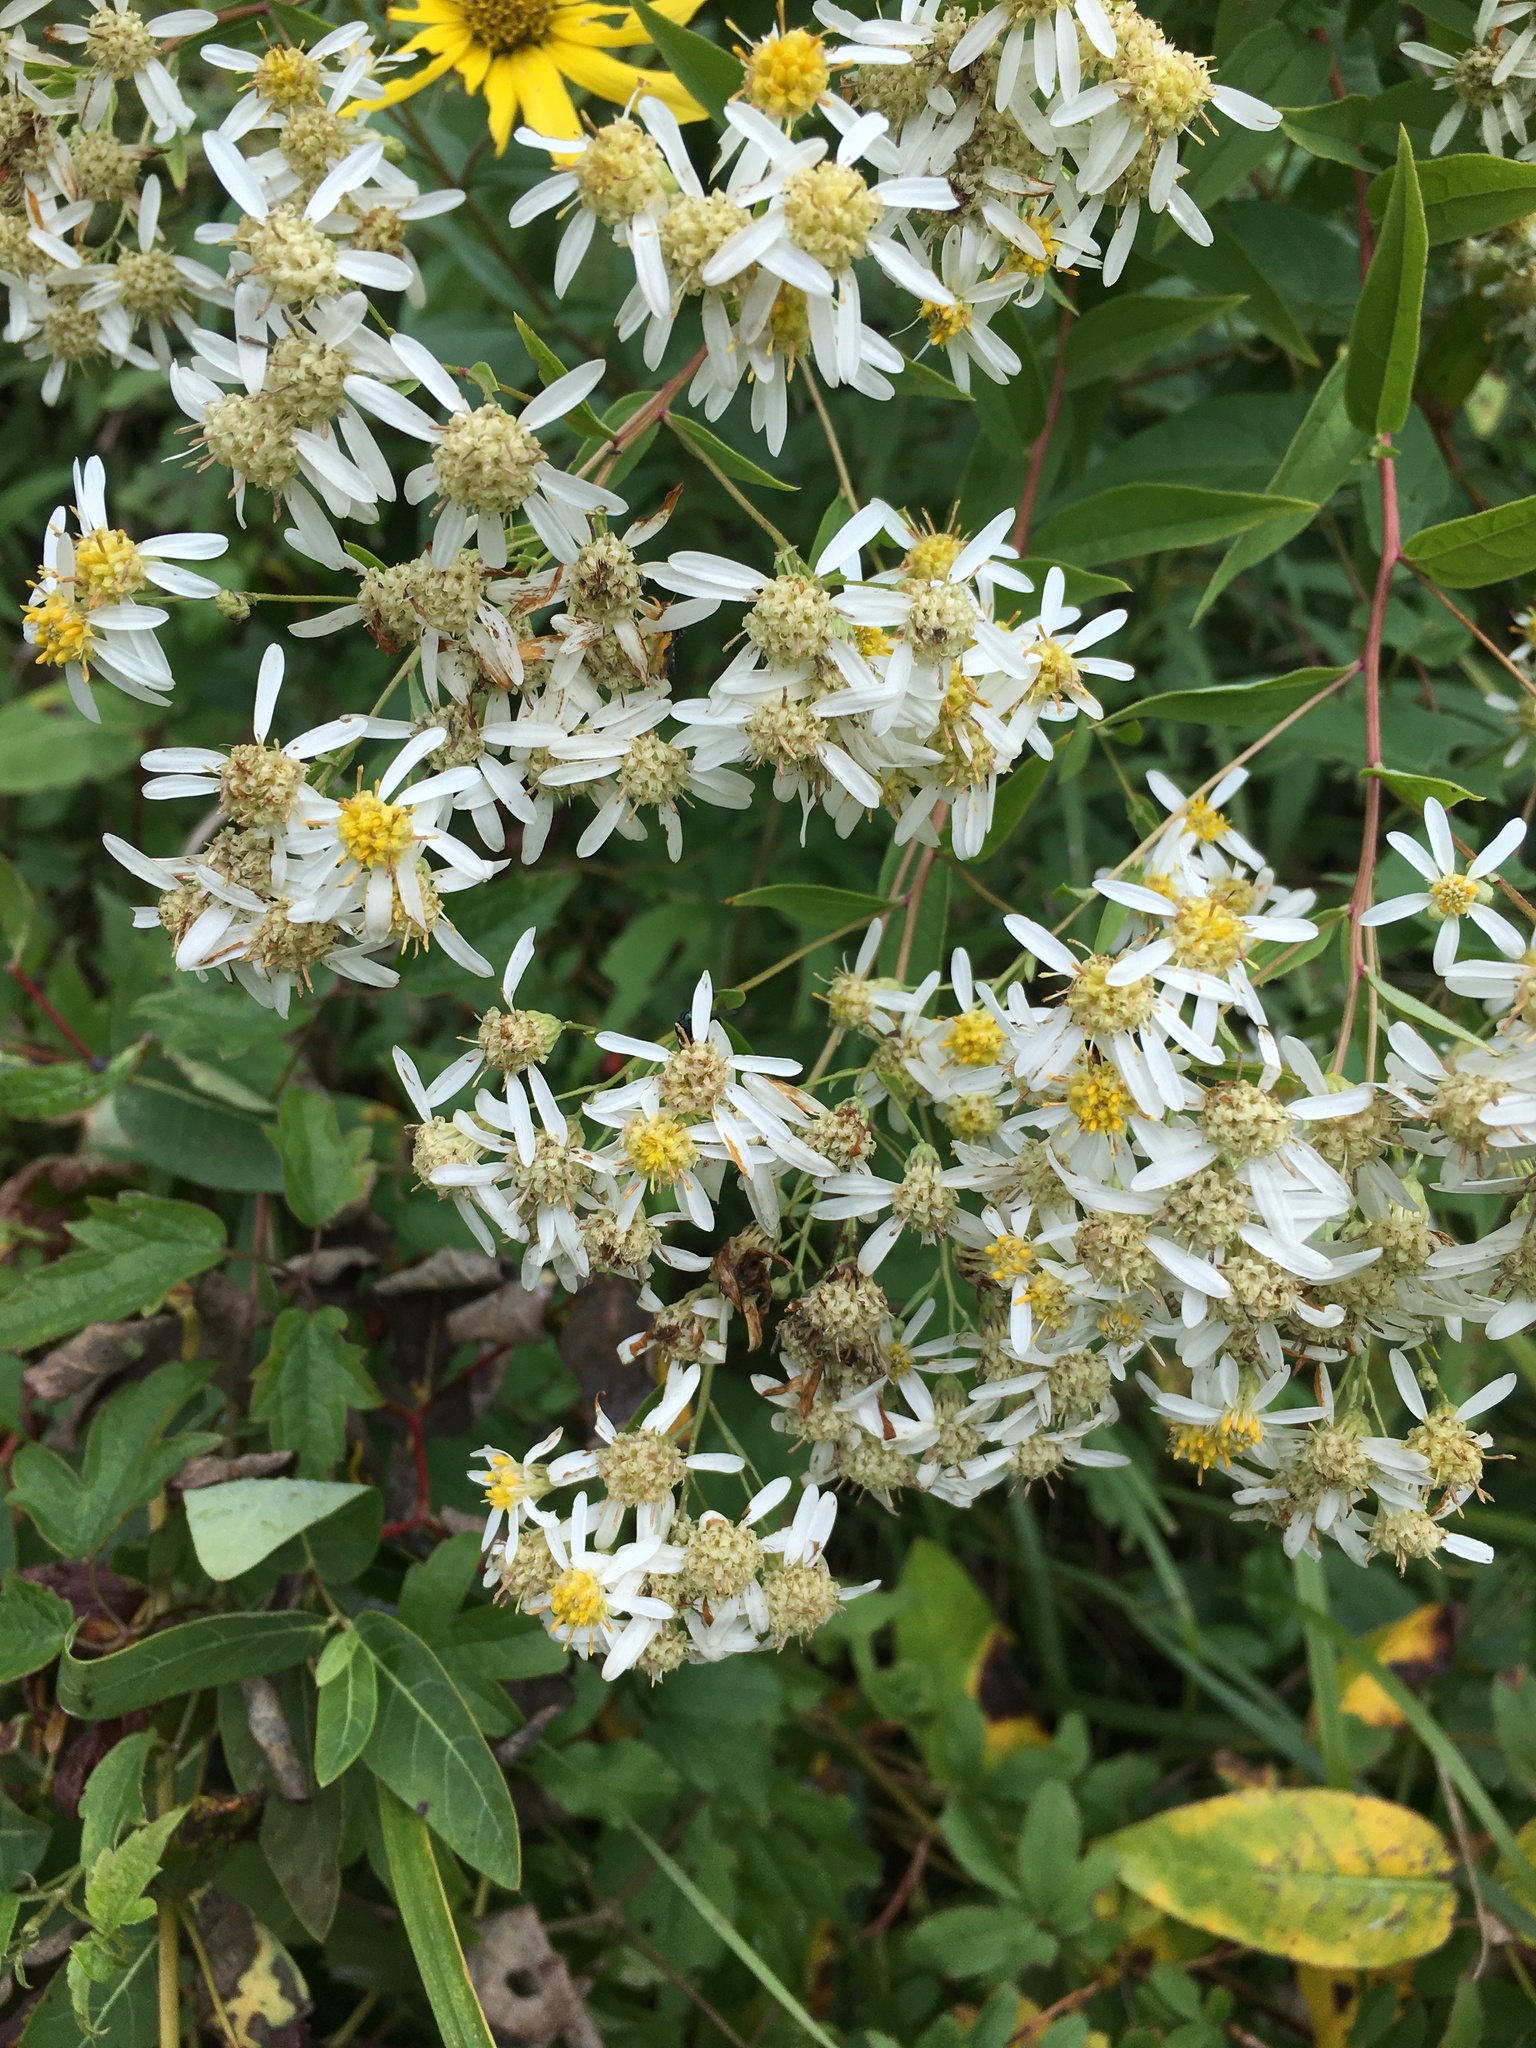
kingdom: Plantae
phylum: Tracheophyta
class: Magnoliopsida
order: Asterales
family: Asteraceae
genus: Doellingeria
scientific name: Doellingeria umbellata
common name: Flat-top white aster
